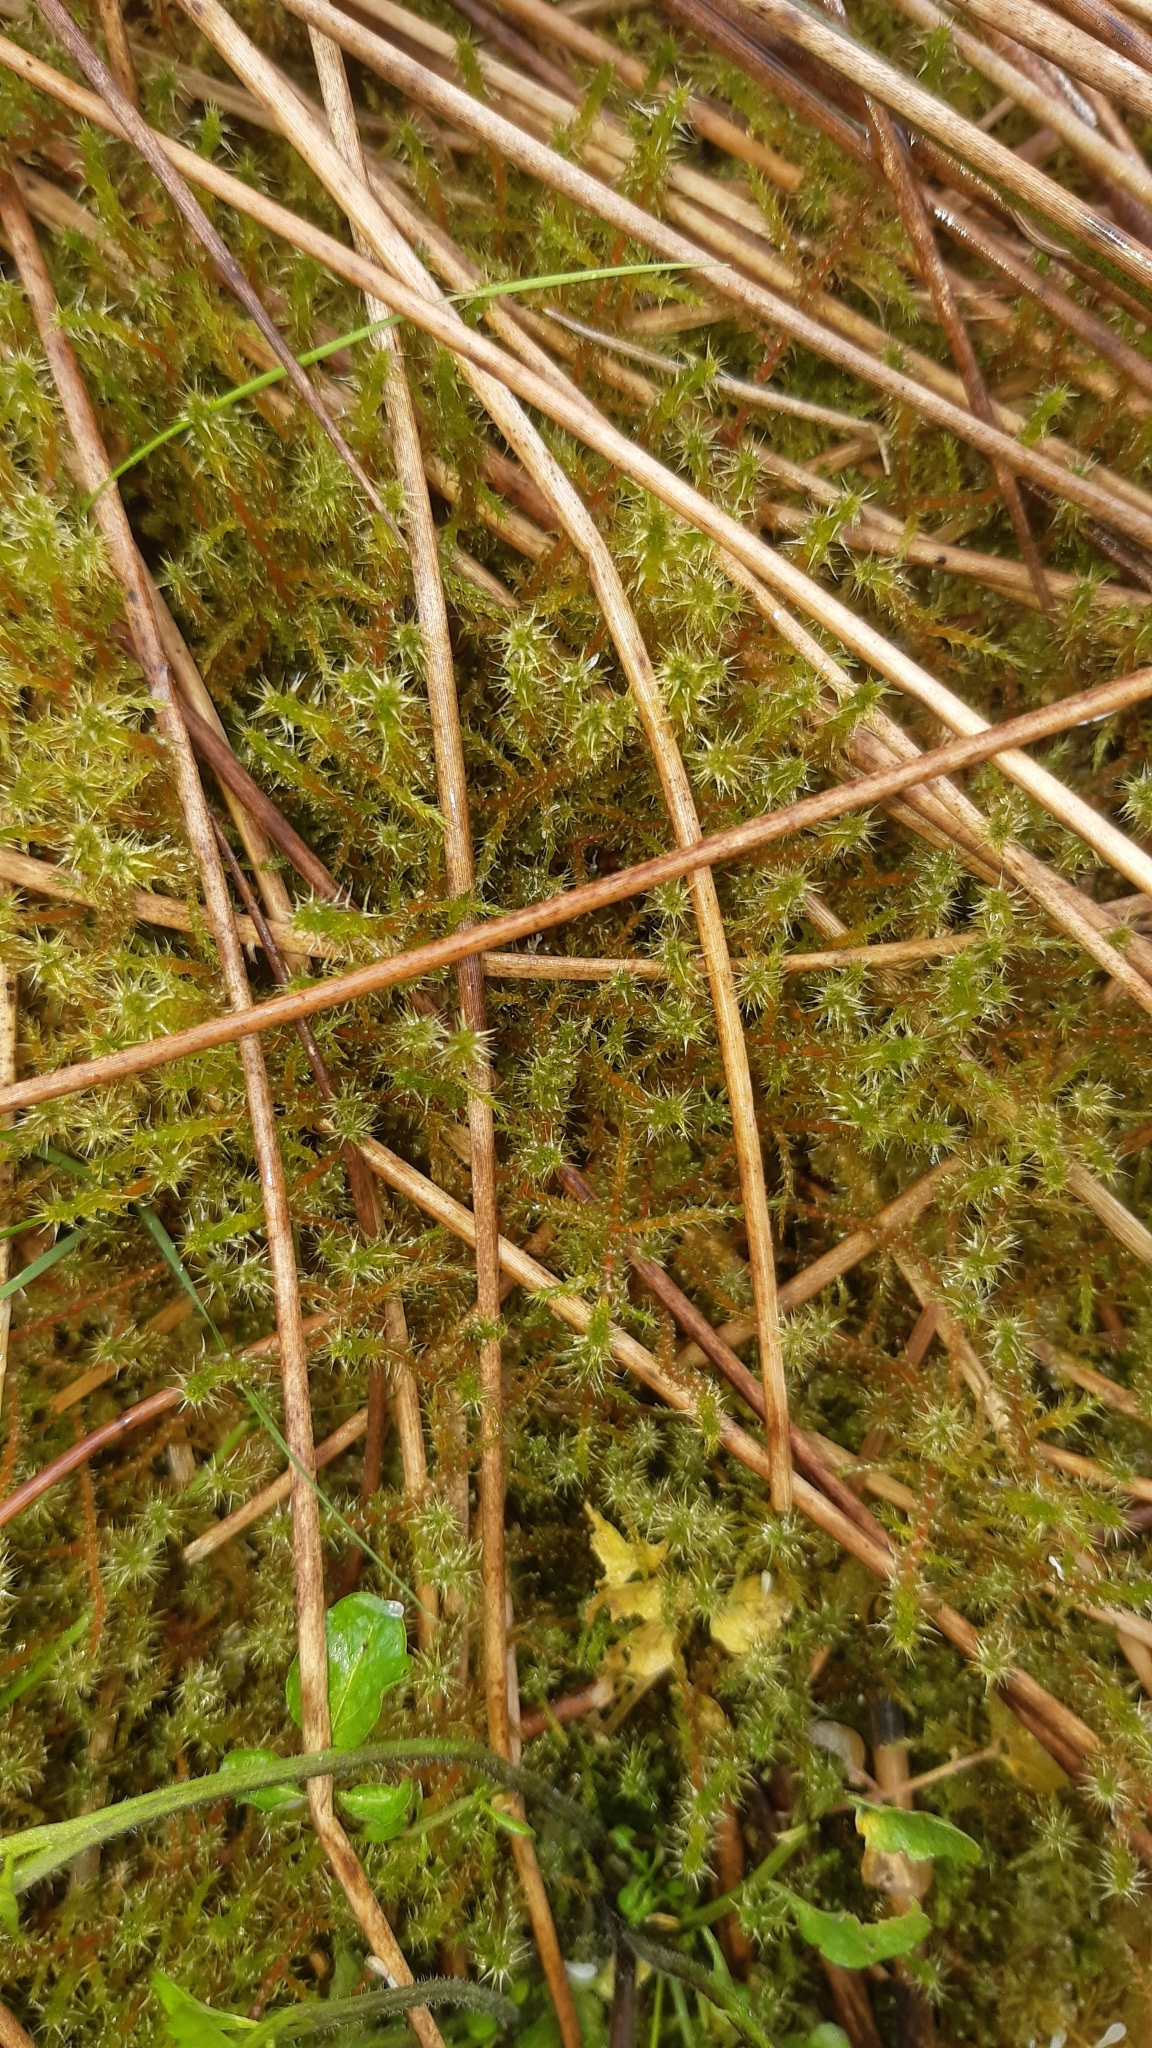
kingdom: Plantae
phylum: Bryophyta
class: Bryopsida
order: Hypnales
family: Hylocomiaceae
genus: Rhytidiadelphus
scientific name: Rhytidiadelphus squarrosus
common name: Springy turf-moss
